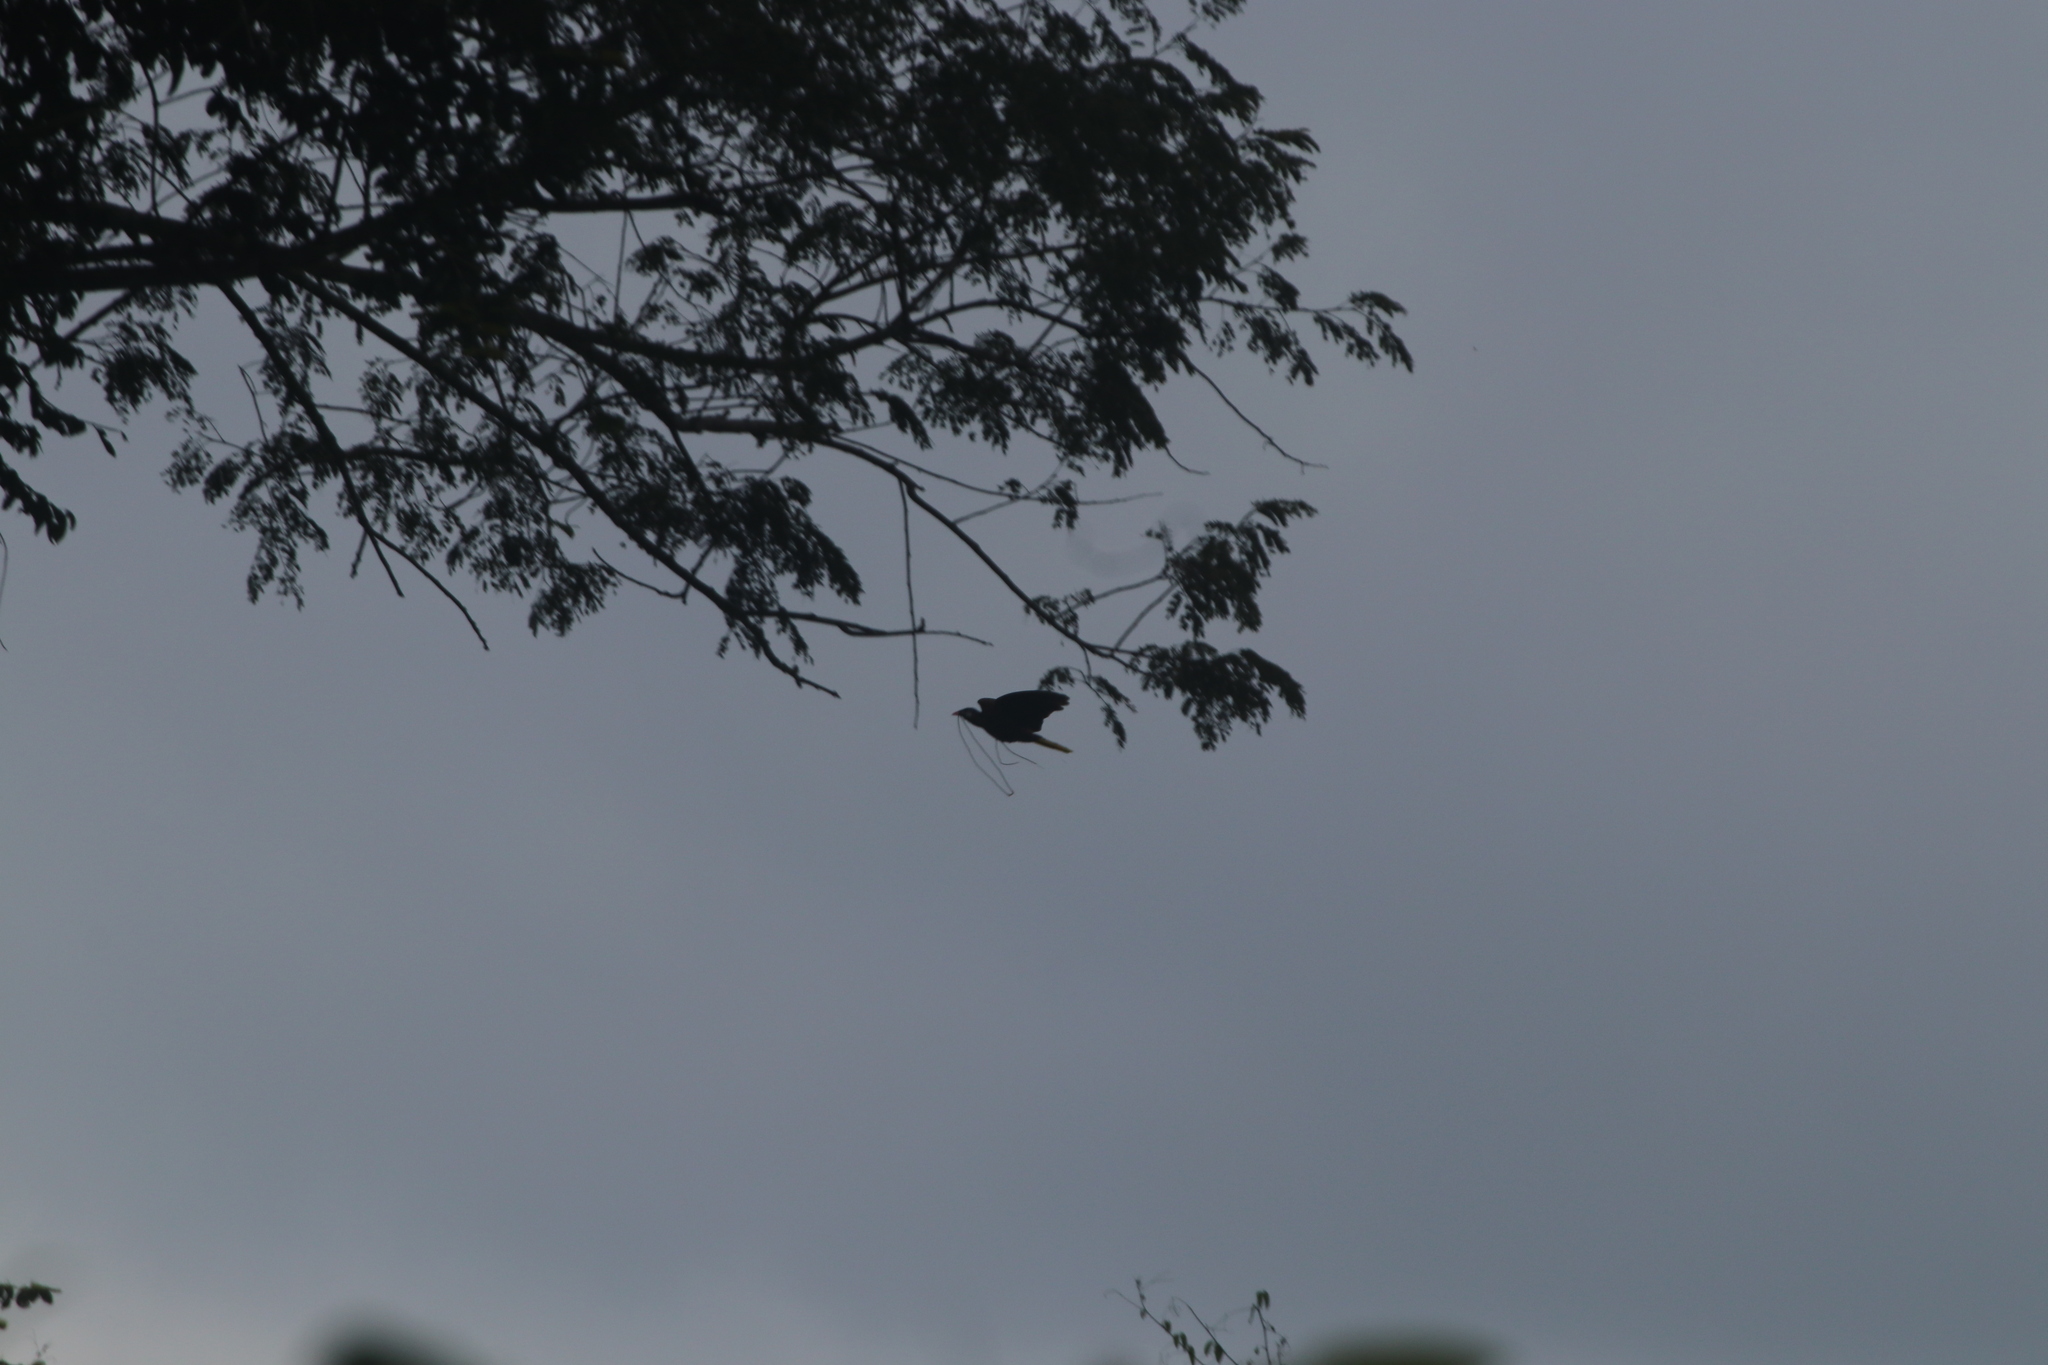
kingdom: Animalia
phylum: Chordata
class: Aves
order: Passeriformes
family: Icteridae
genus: Psarocolius
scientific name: Psarocolius montezuma
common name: Montezuma oropendola
